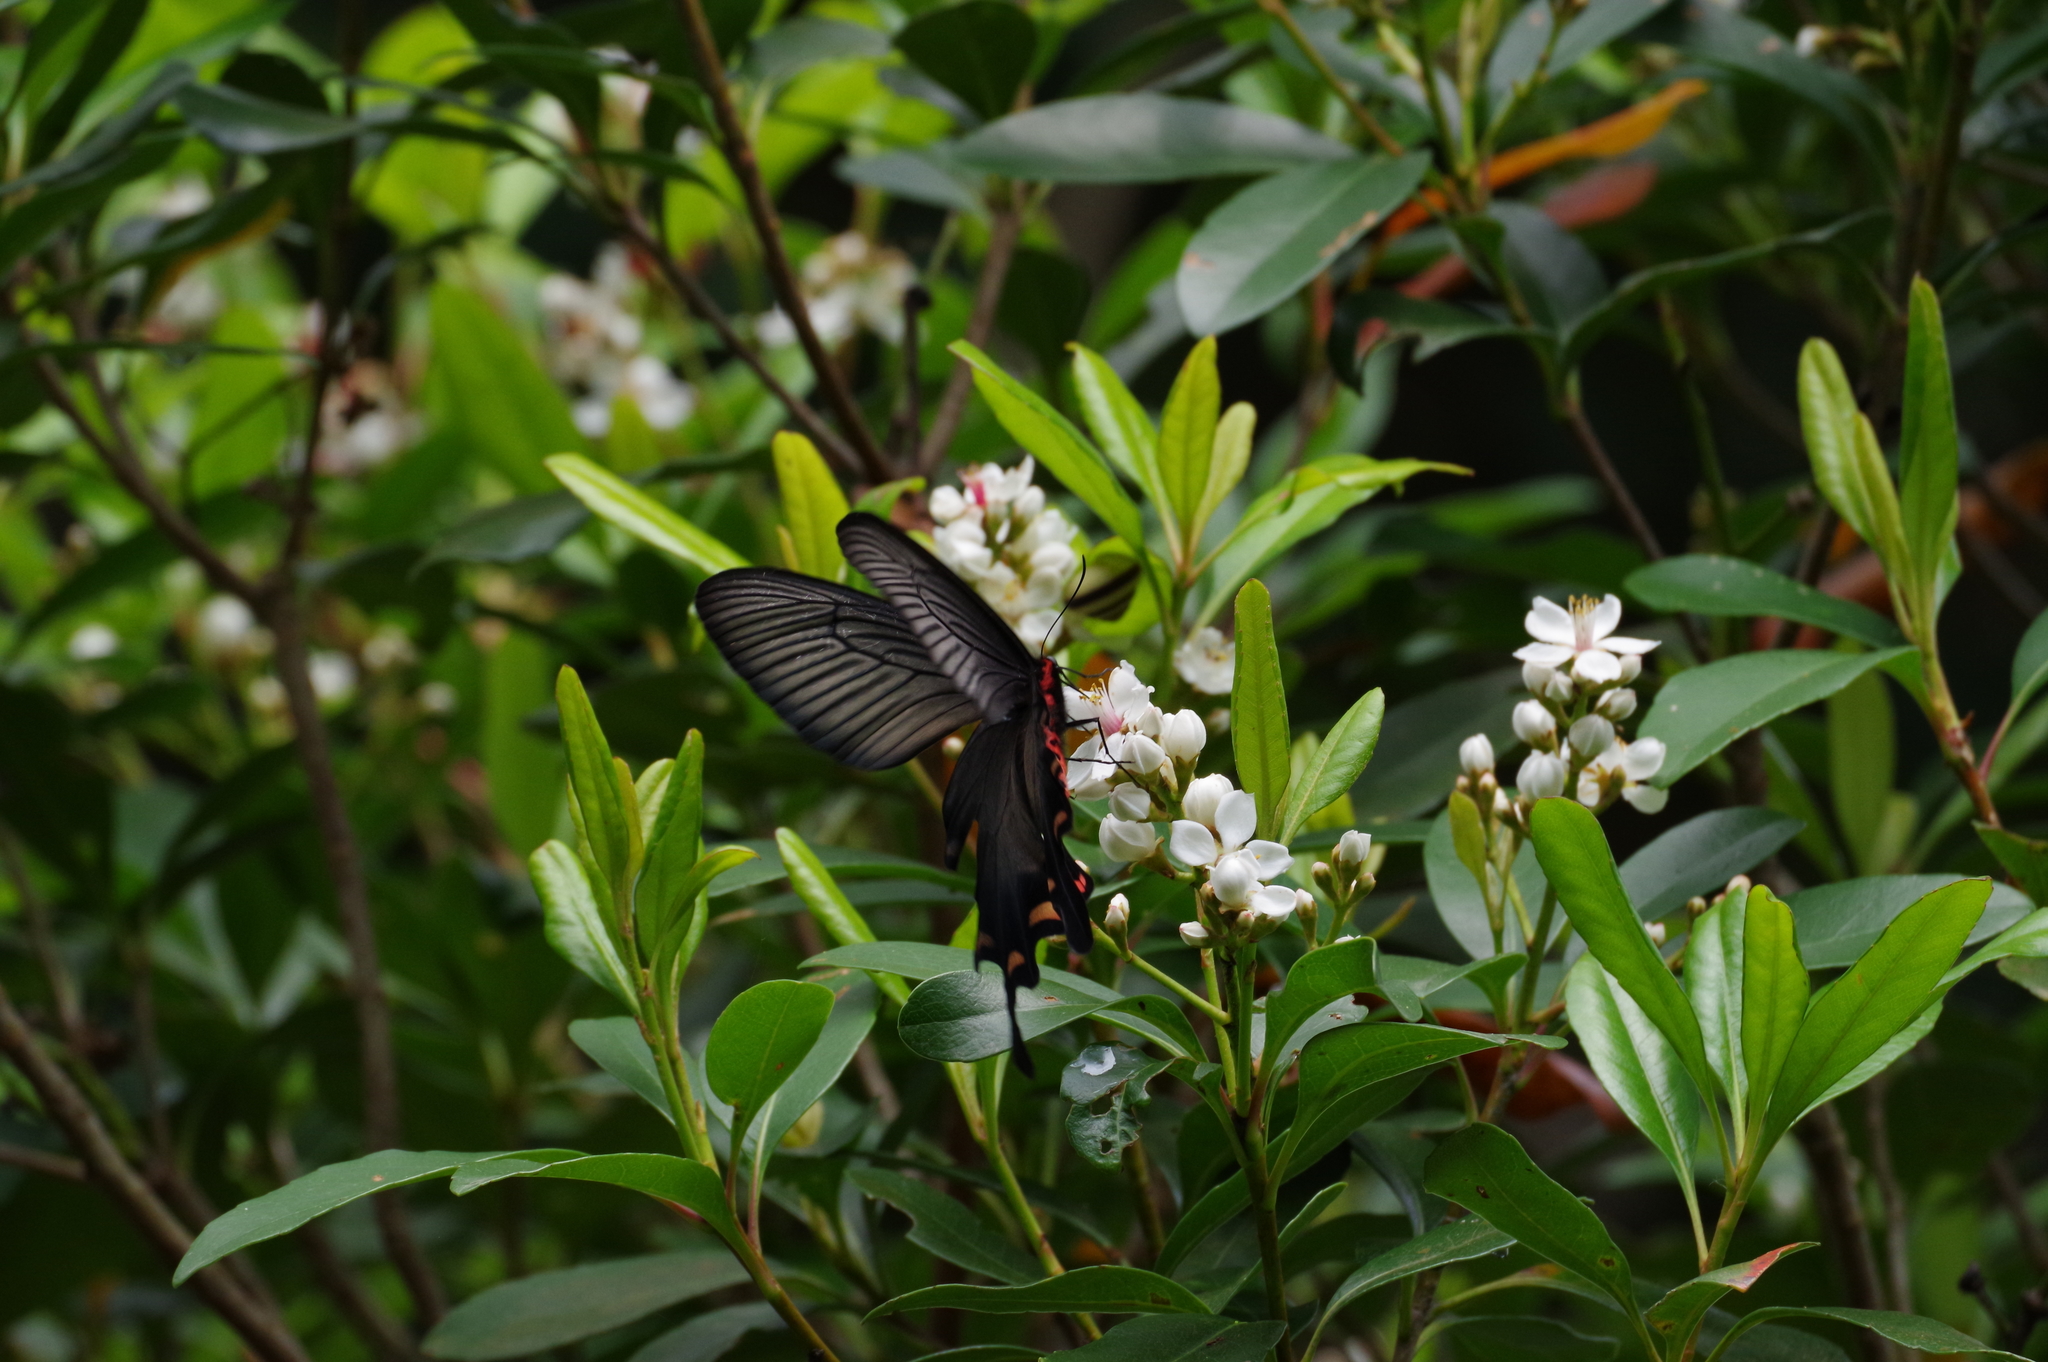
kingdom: Animalia
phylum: Arthropoda
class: Insecta
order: Lepidoptera
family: Papilionidae
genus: Byasa
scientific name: Byasa alcinous
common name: Chinese windmill
